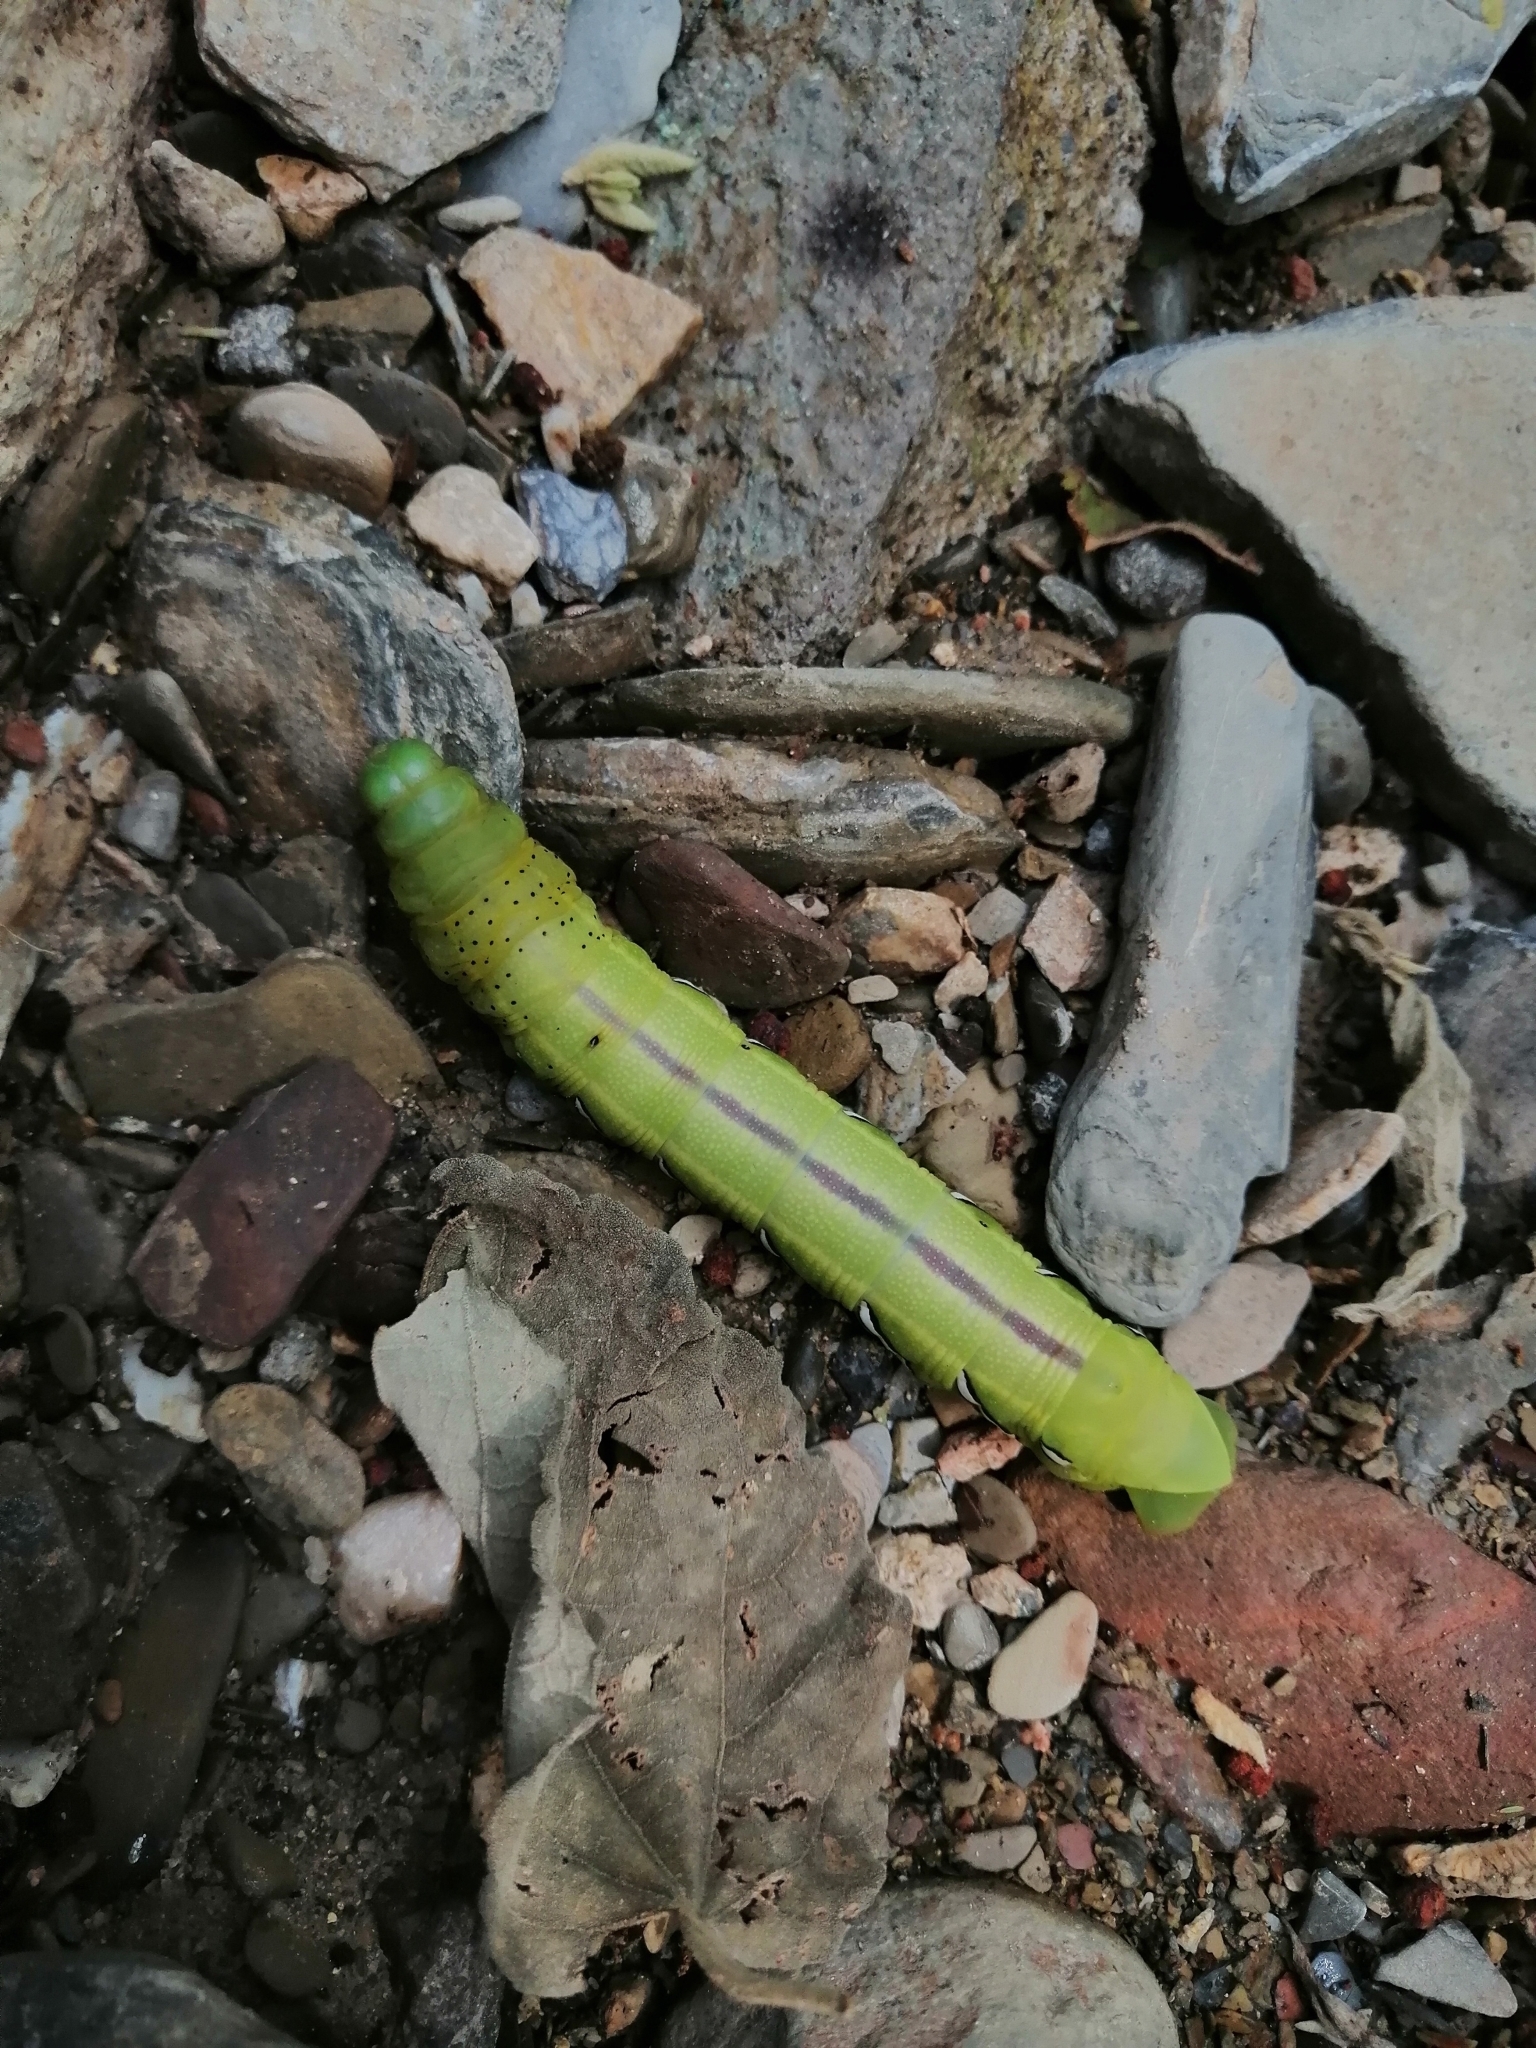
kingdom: Animalia
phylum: Arthropoda
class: Insecta
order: Lepidoptera
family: Sphingidae
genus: Eumorpha
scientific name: Eumorpha vitis
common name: Vine sphinx
